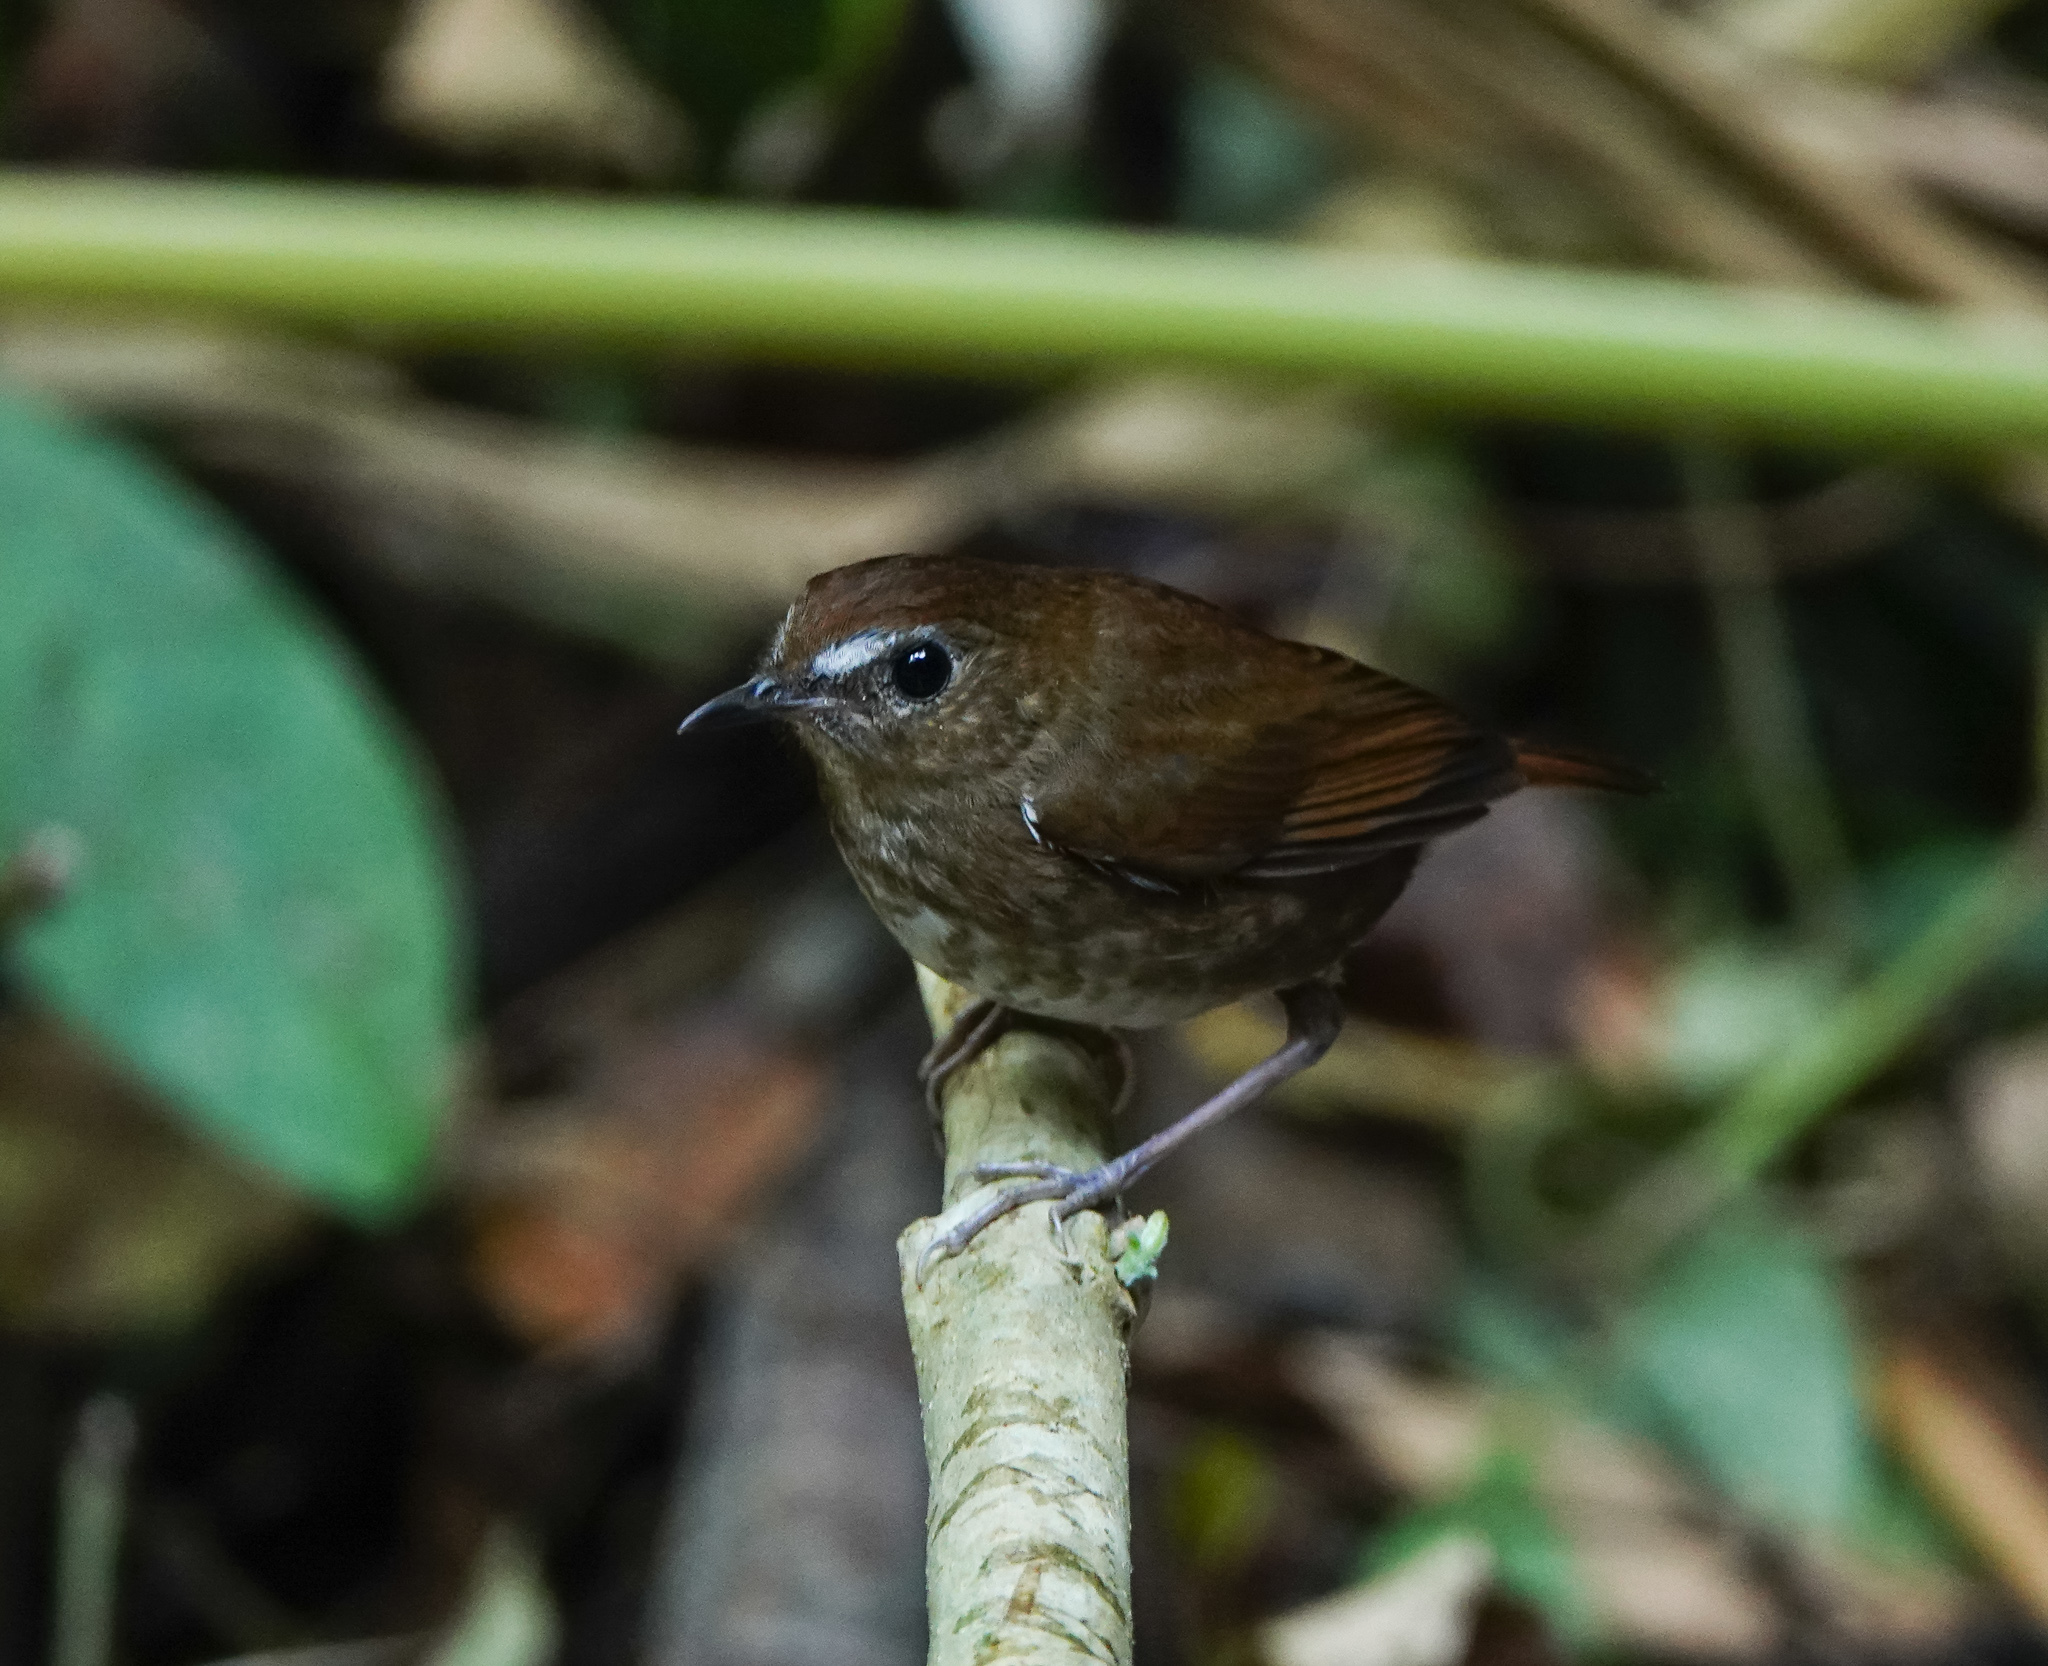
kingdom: Animalia
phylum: Chordata
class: Aves
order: Passeriformes
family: Muscicapidae
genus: Brachypteryx
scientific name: Brachypteryx leucophris
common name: Lesser shortwing
